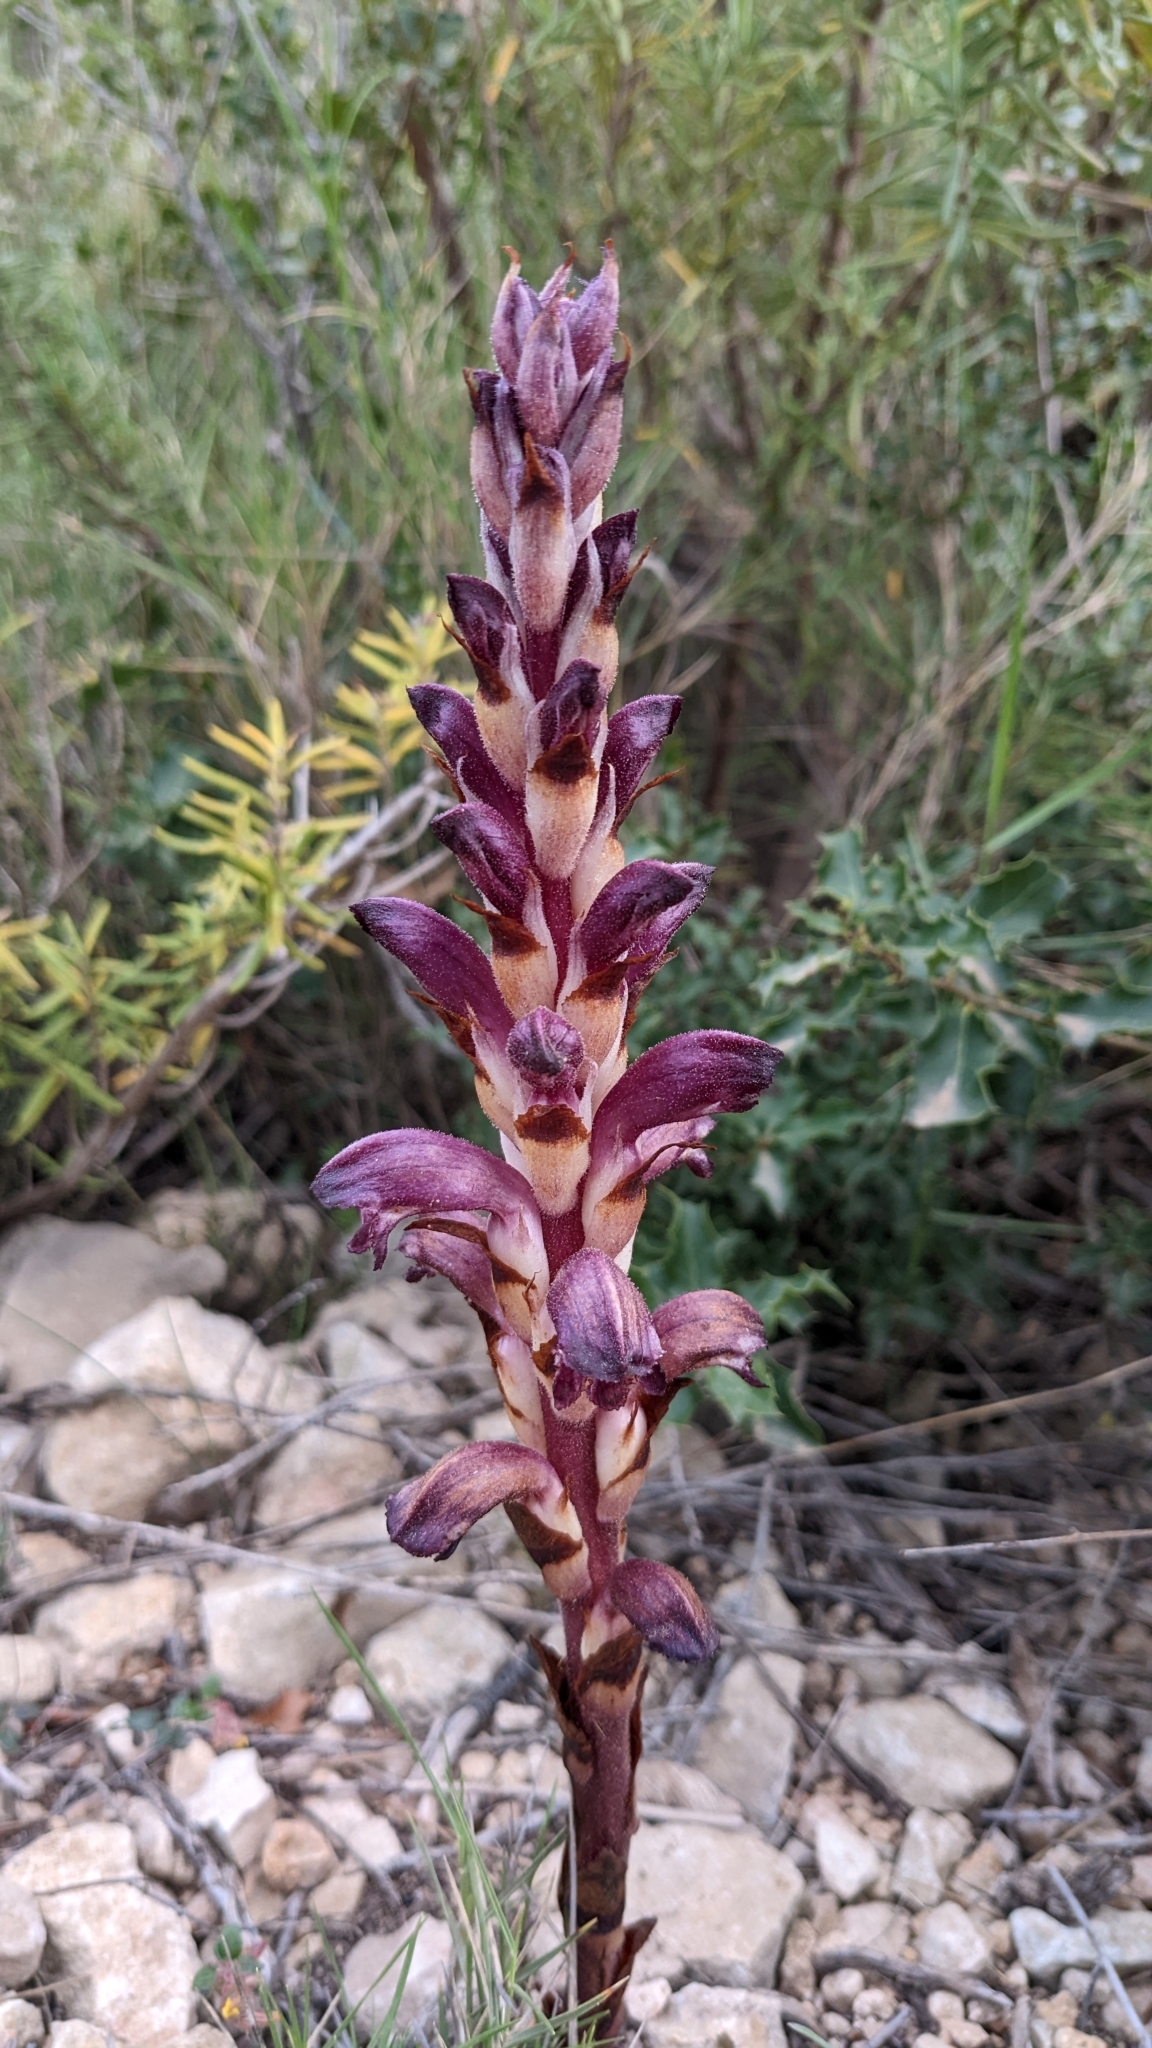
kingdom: Plantae
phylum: Tracheophyta
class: Magnoliopsida
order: Lamiales
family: Orobanchaceae
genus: Boulardia
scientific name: Boulardia latisquama
